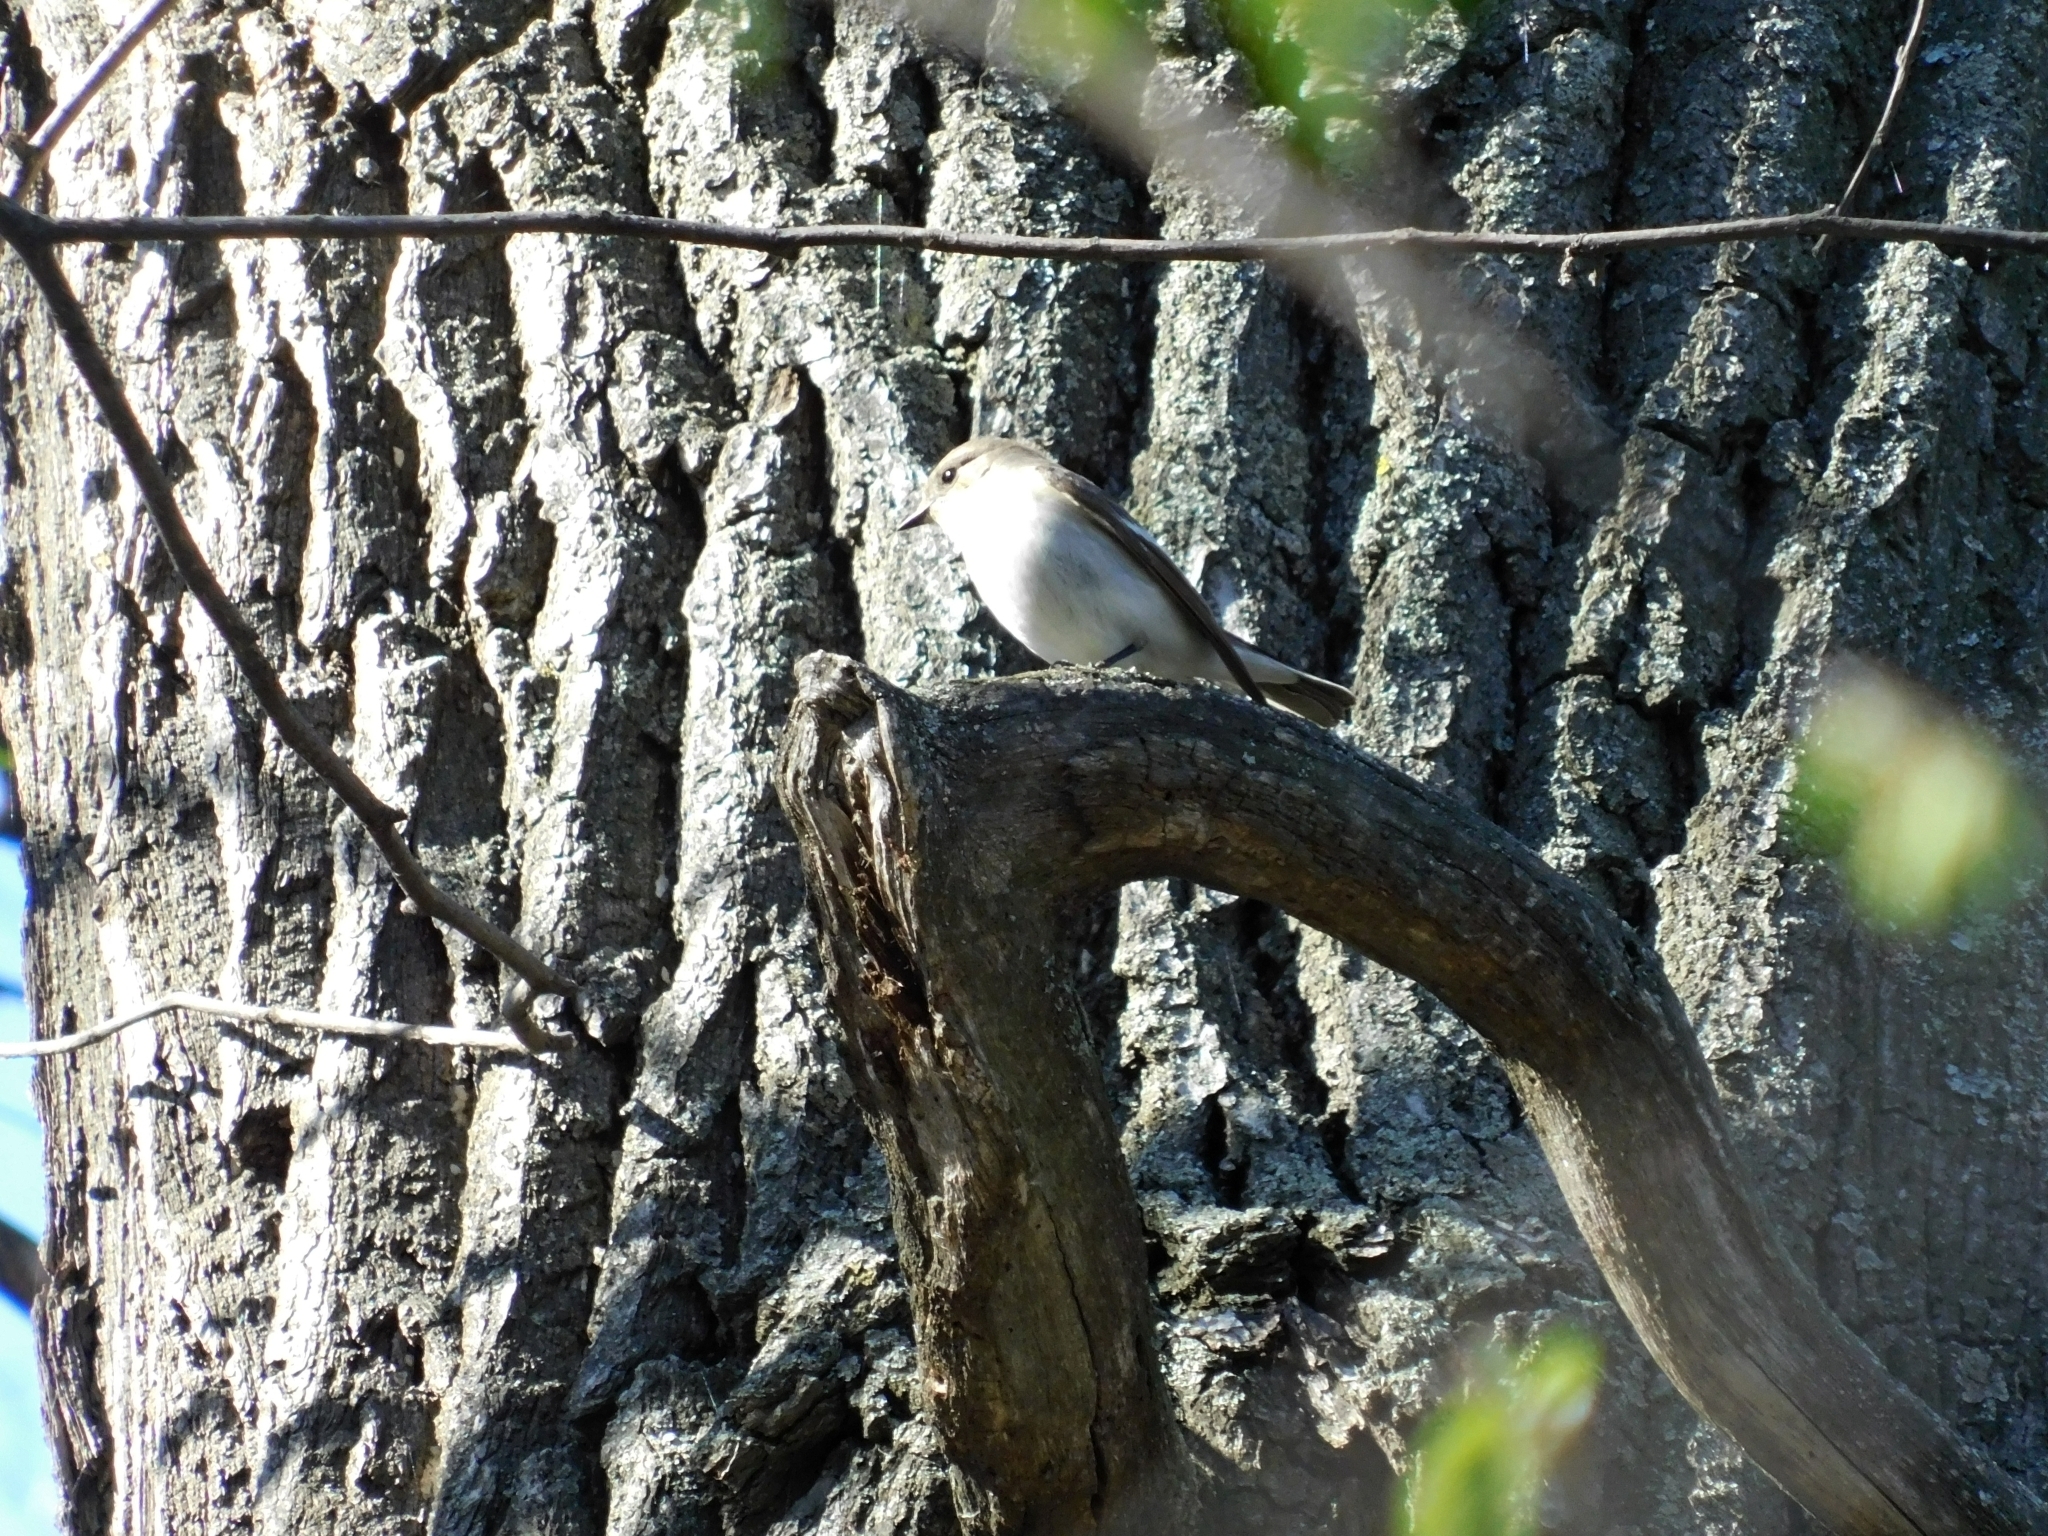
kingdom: Animalia
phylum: Chordata
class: Aves
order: Passeriformes
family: Muscicapidae
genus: Ficedula
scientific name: Ficedula hypoleuca
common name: European pied flycatcher
